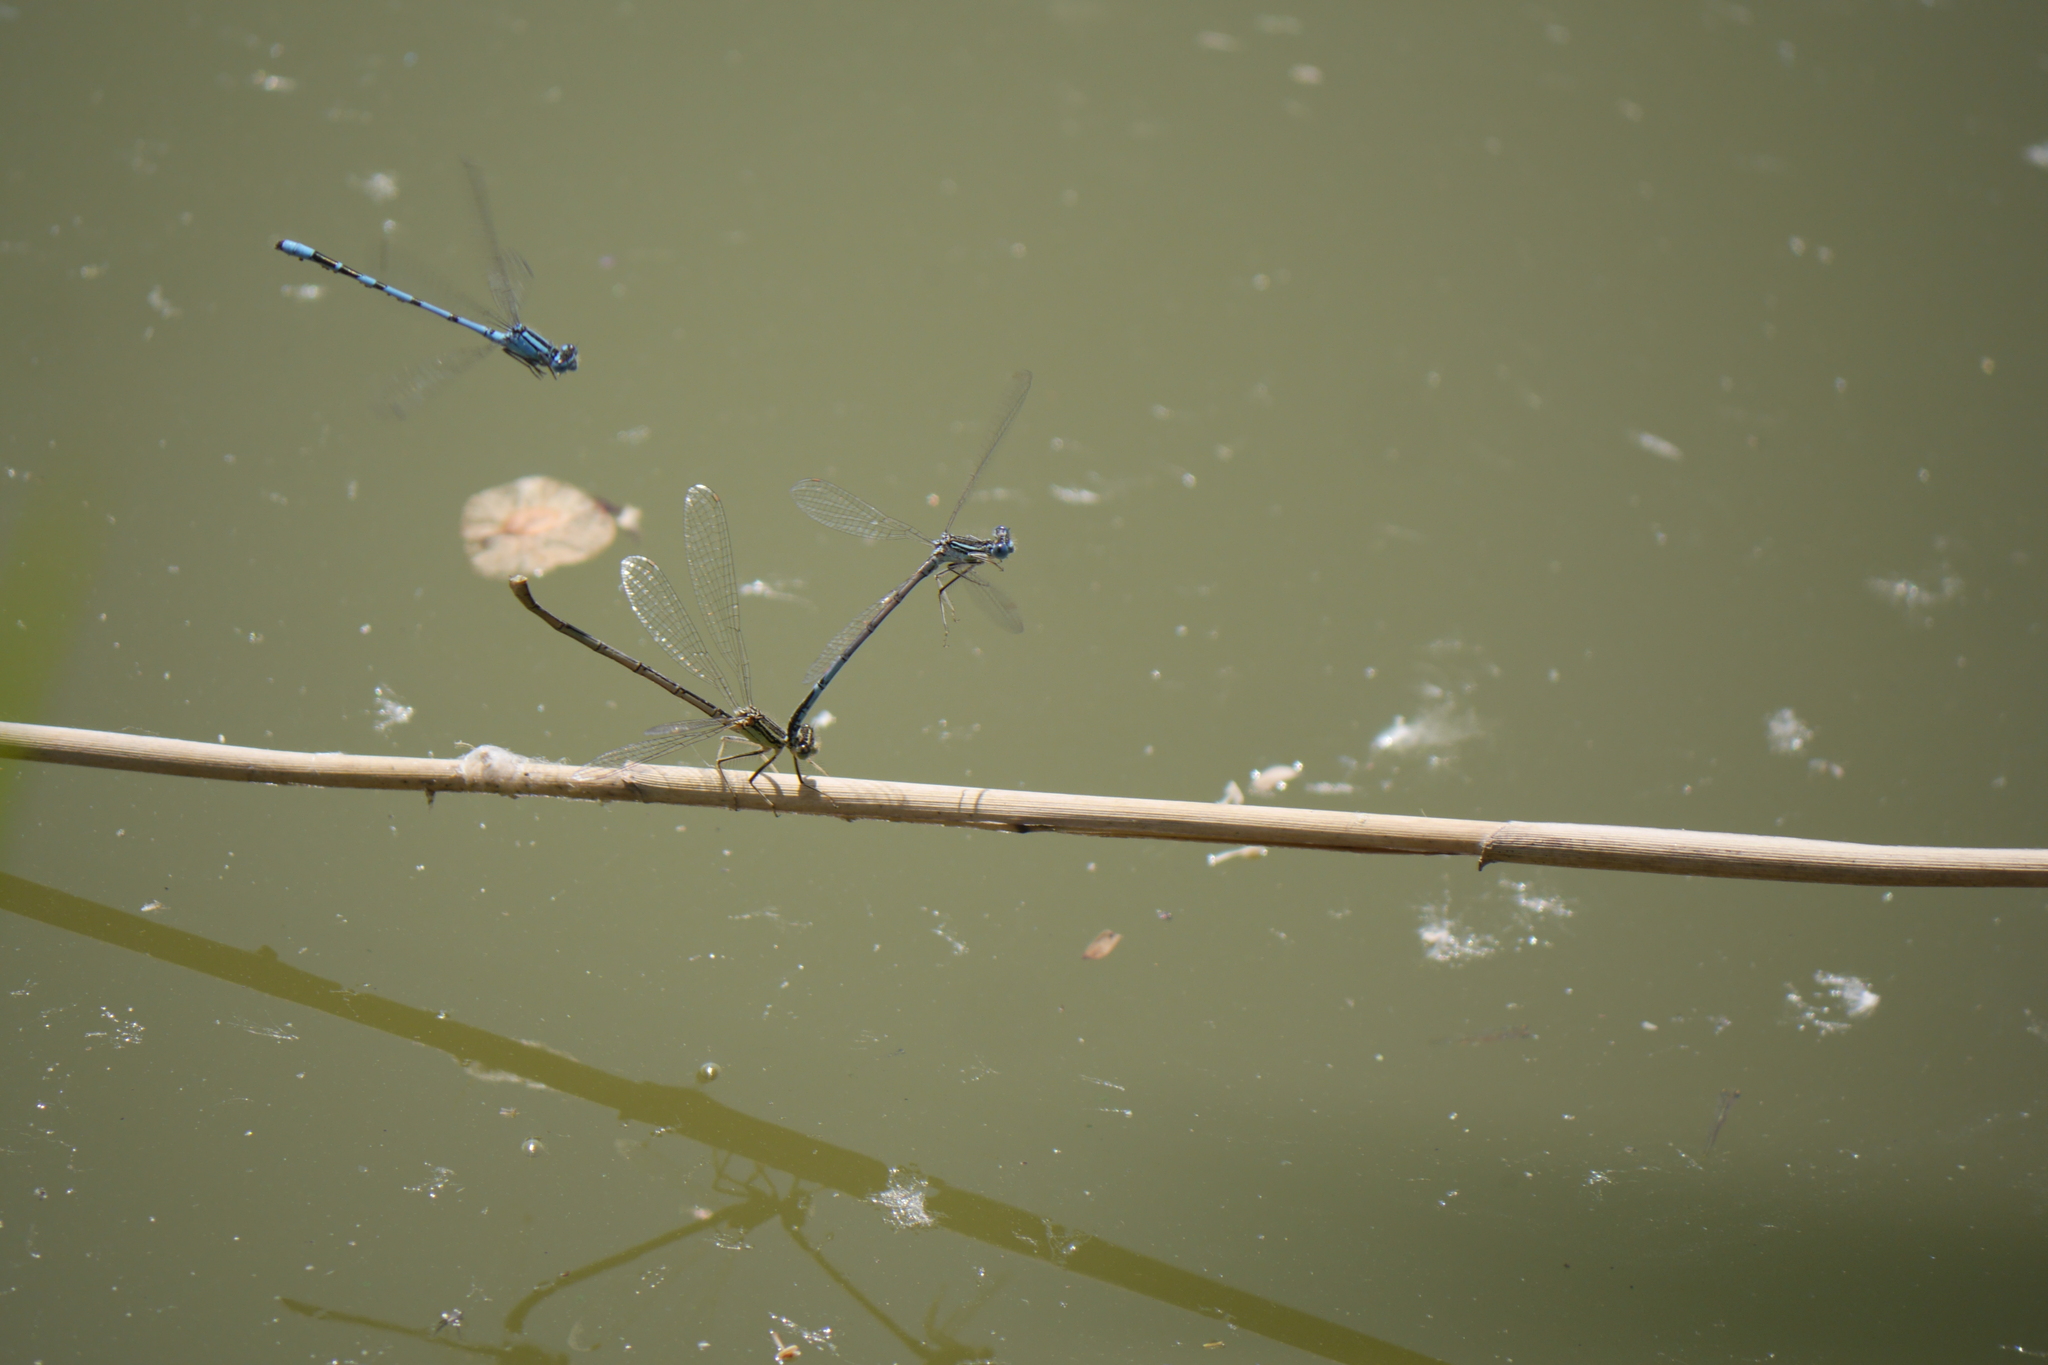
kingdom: Animalia
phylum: Arthropoda
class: Insecta
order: Odonata
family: Coenagrionidae
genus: Enallagma
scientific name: Enallagma cyathigerum
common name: Common blue damselfly
